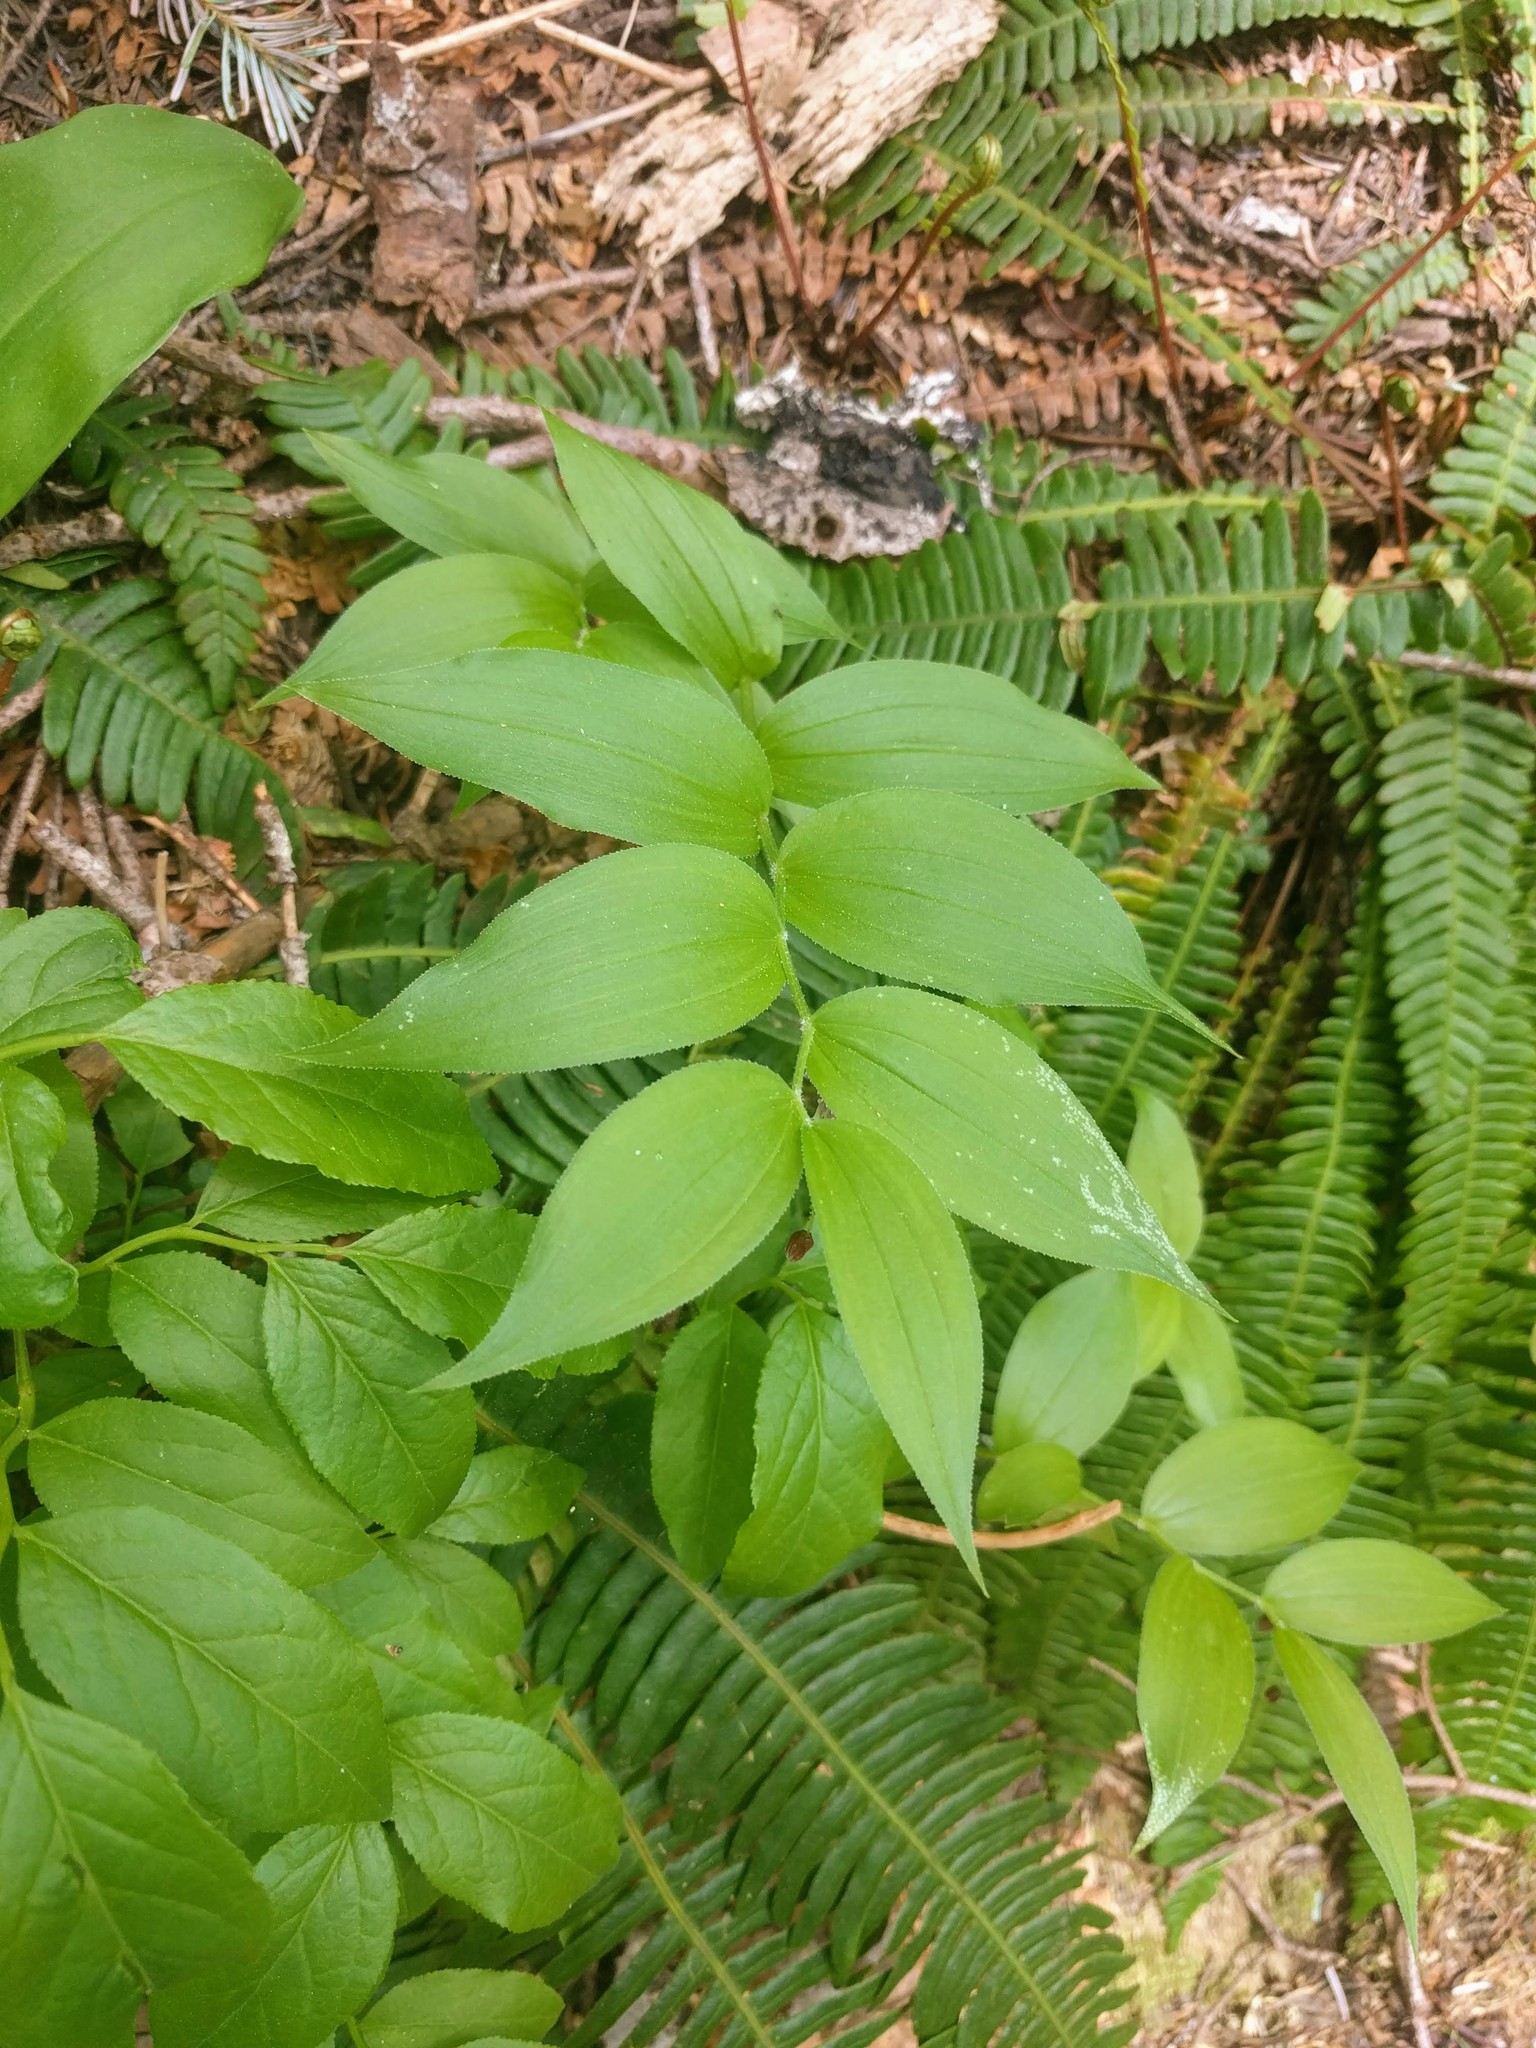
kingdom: Plantae
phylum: Tracheophyta
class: Liliopsida
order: Liliales
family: Liliaceae
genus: Streptopus
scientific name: Streptopus lanceolatus
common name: Rose mandarin
